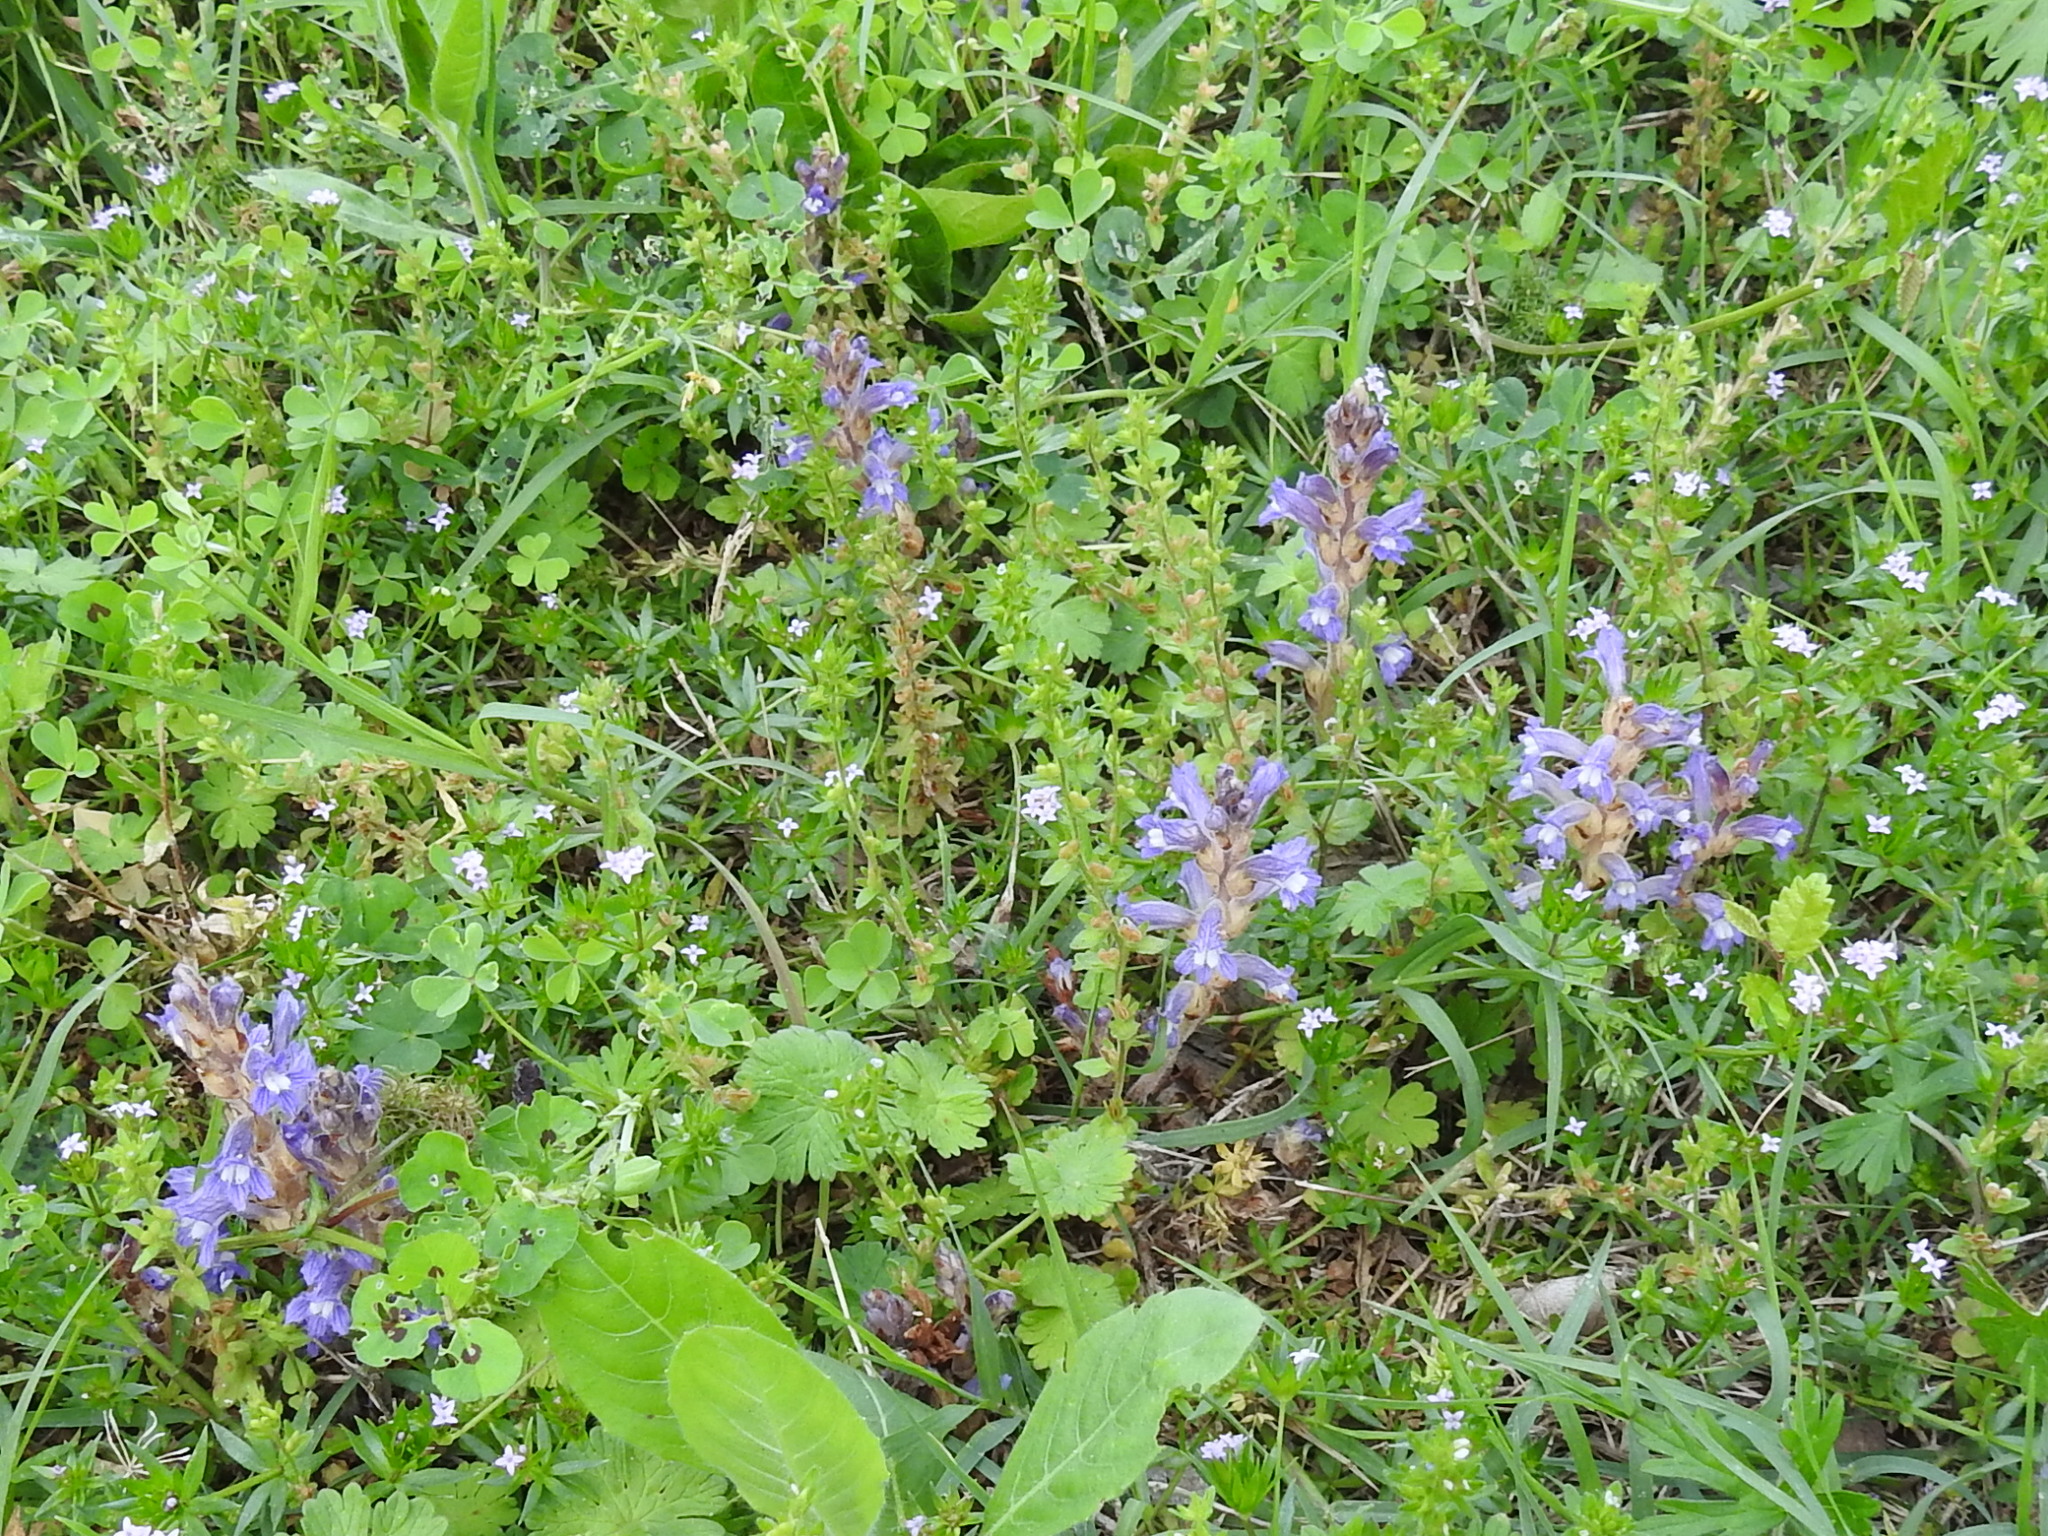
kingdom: Plantae
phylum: Tracheophyta
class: Magnoliopsida
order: Lamiales
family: Orobanchaceae
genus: Phelipanche
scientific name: Phelipanche ramosa
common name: Branched broomrape
